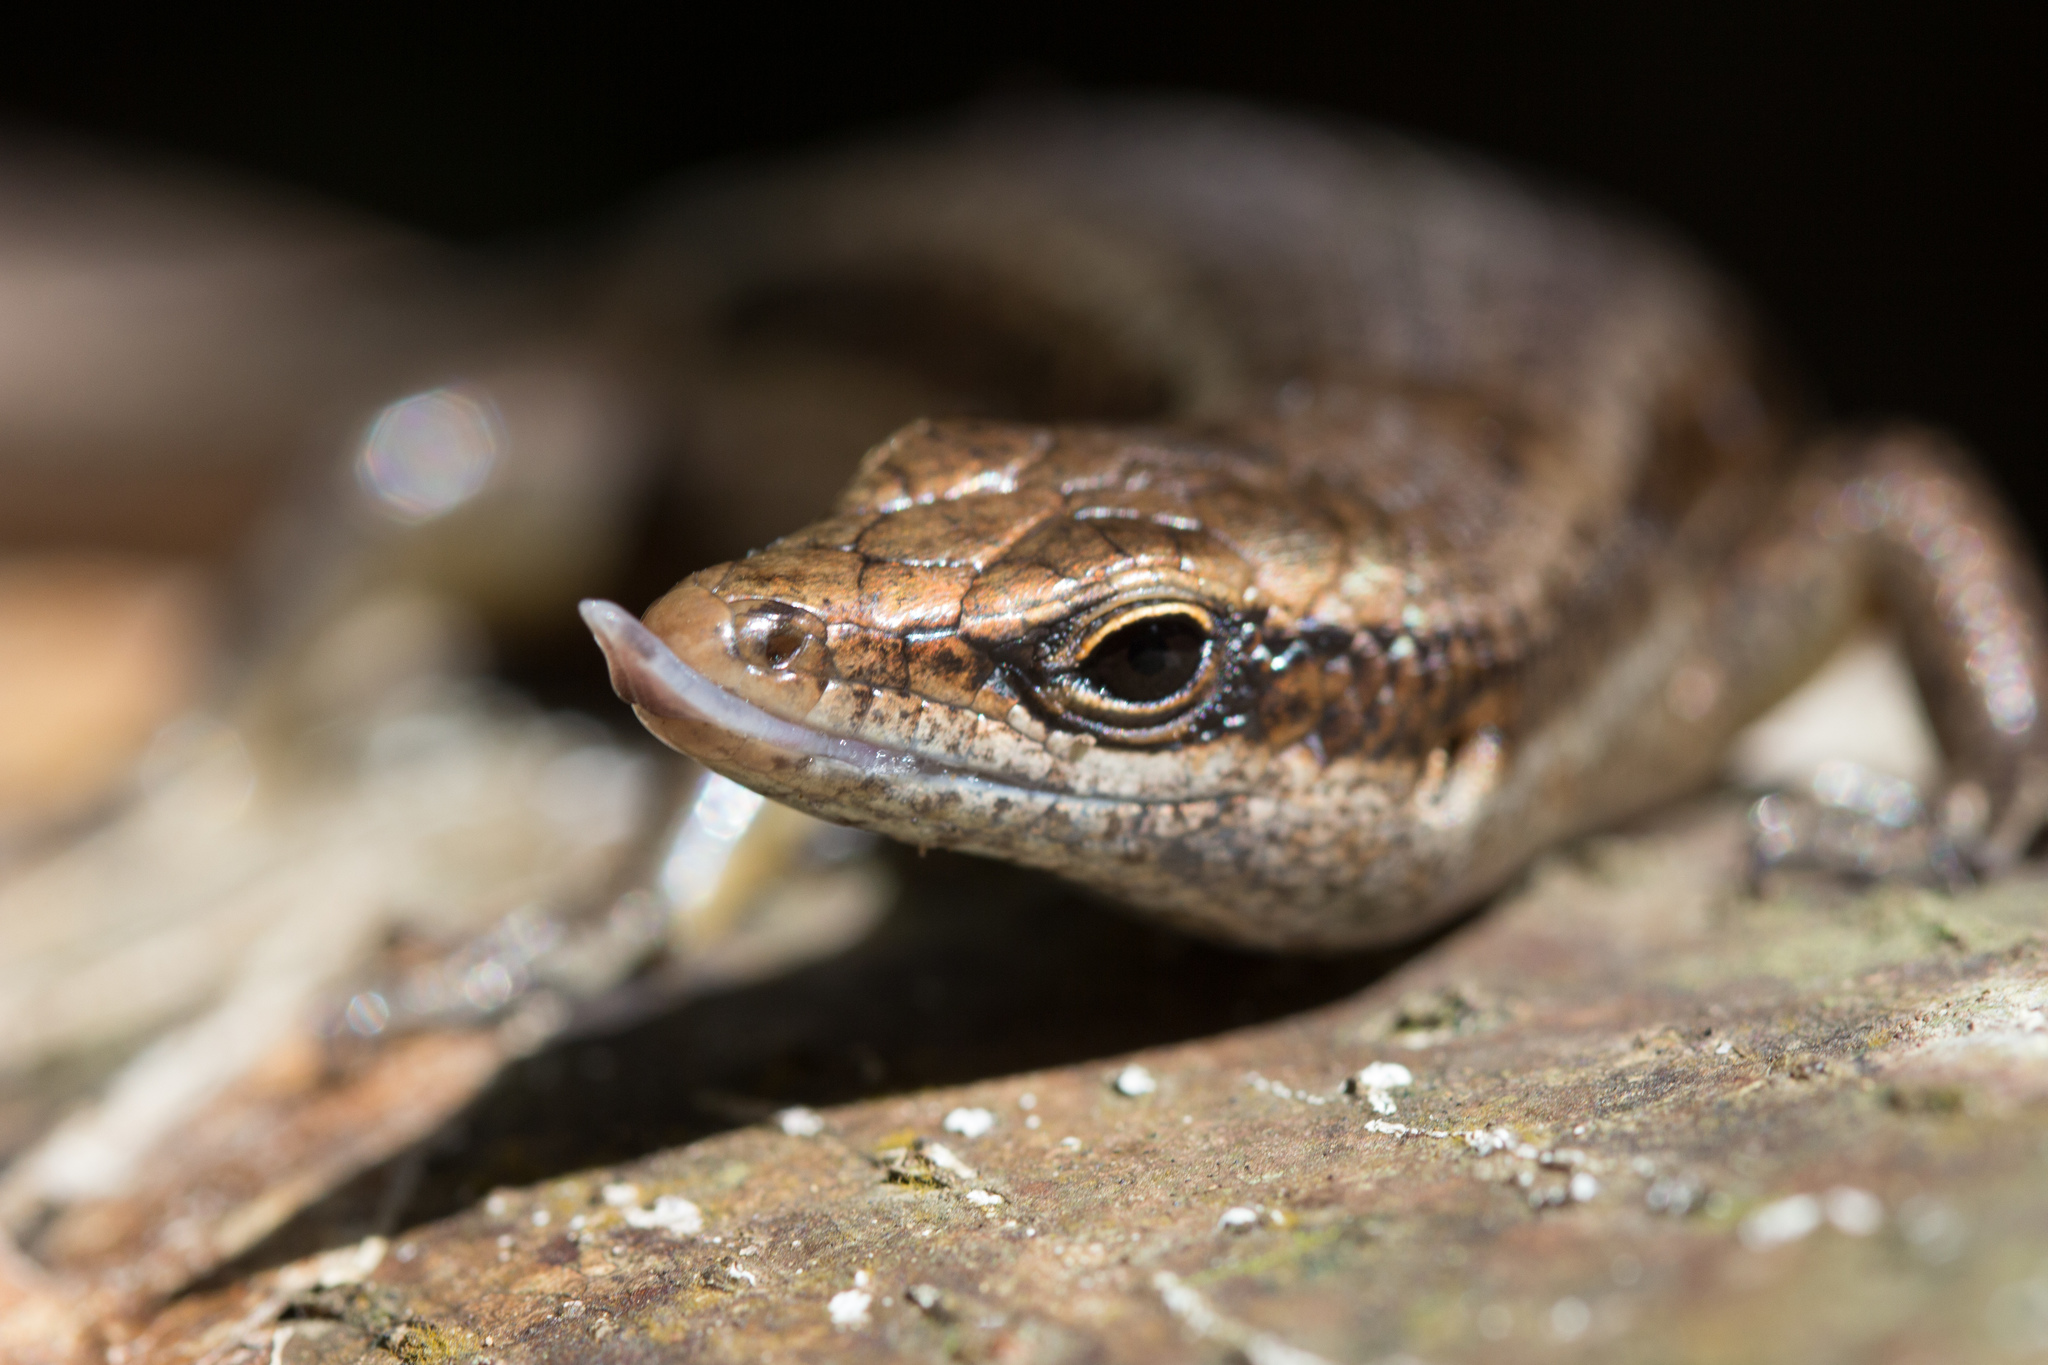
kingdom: Animalia
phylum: Chordata
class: Squamata
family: Scincidae
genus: Trachylepis
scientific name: Trachylepis sechellensis
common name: Seychelles skink
